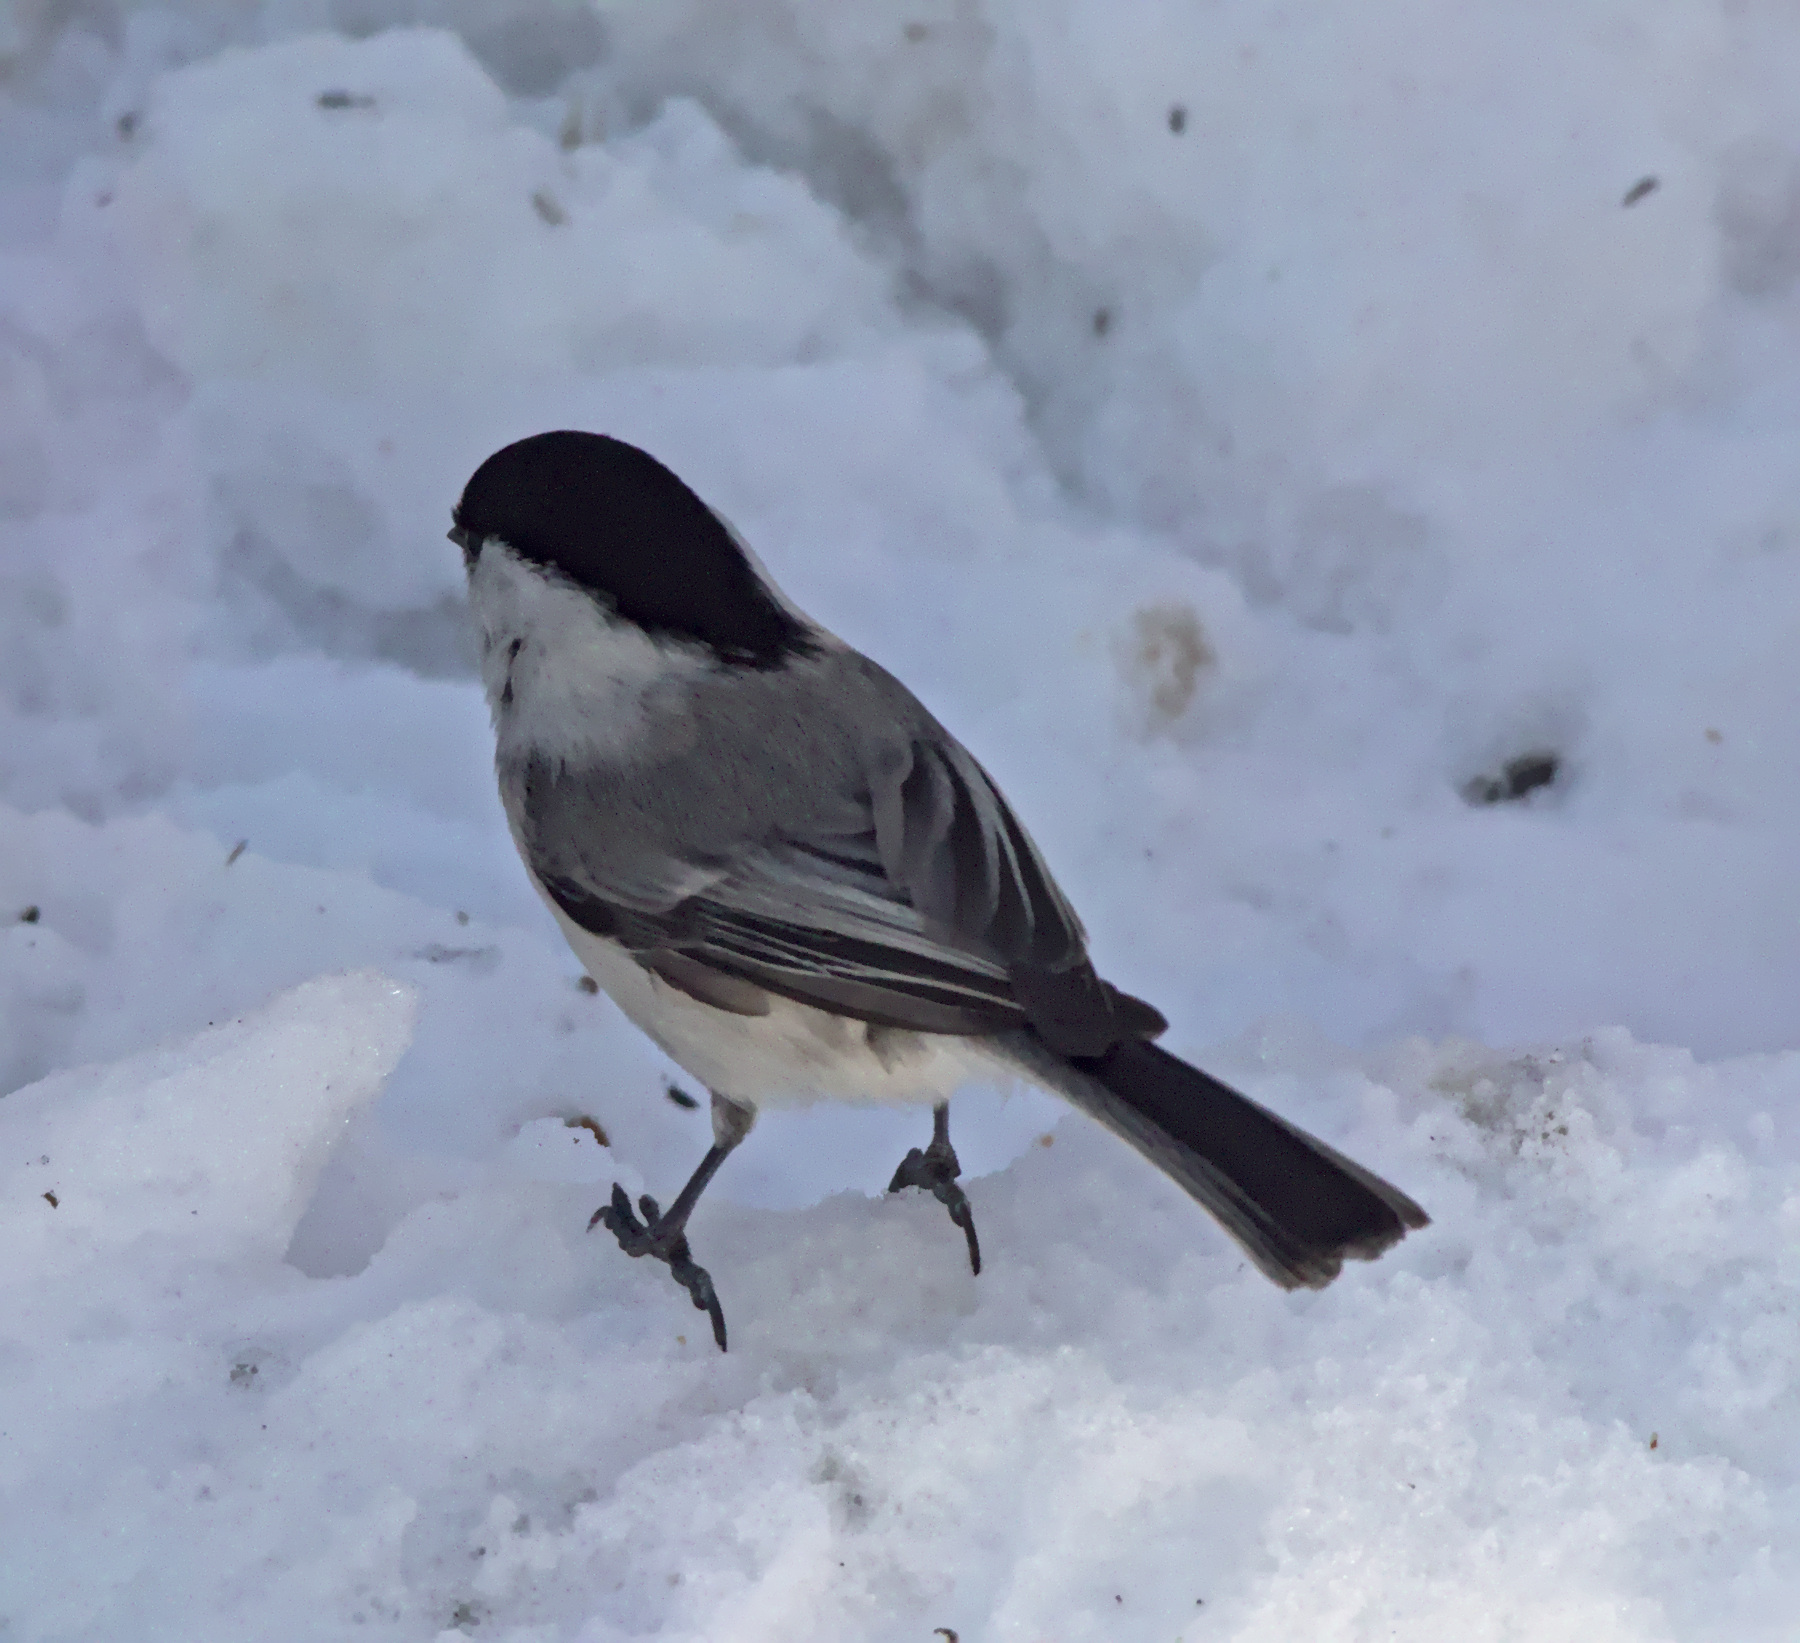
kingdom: Animalia
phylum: Chordata
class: Aves
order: Passeriformes
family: Paridae
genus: Poecile
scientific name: Poecile montanus
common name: Willow tit
